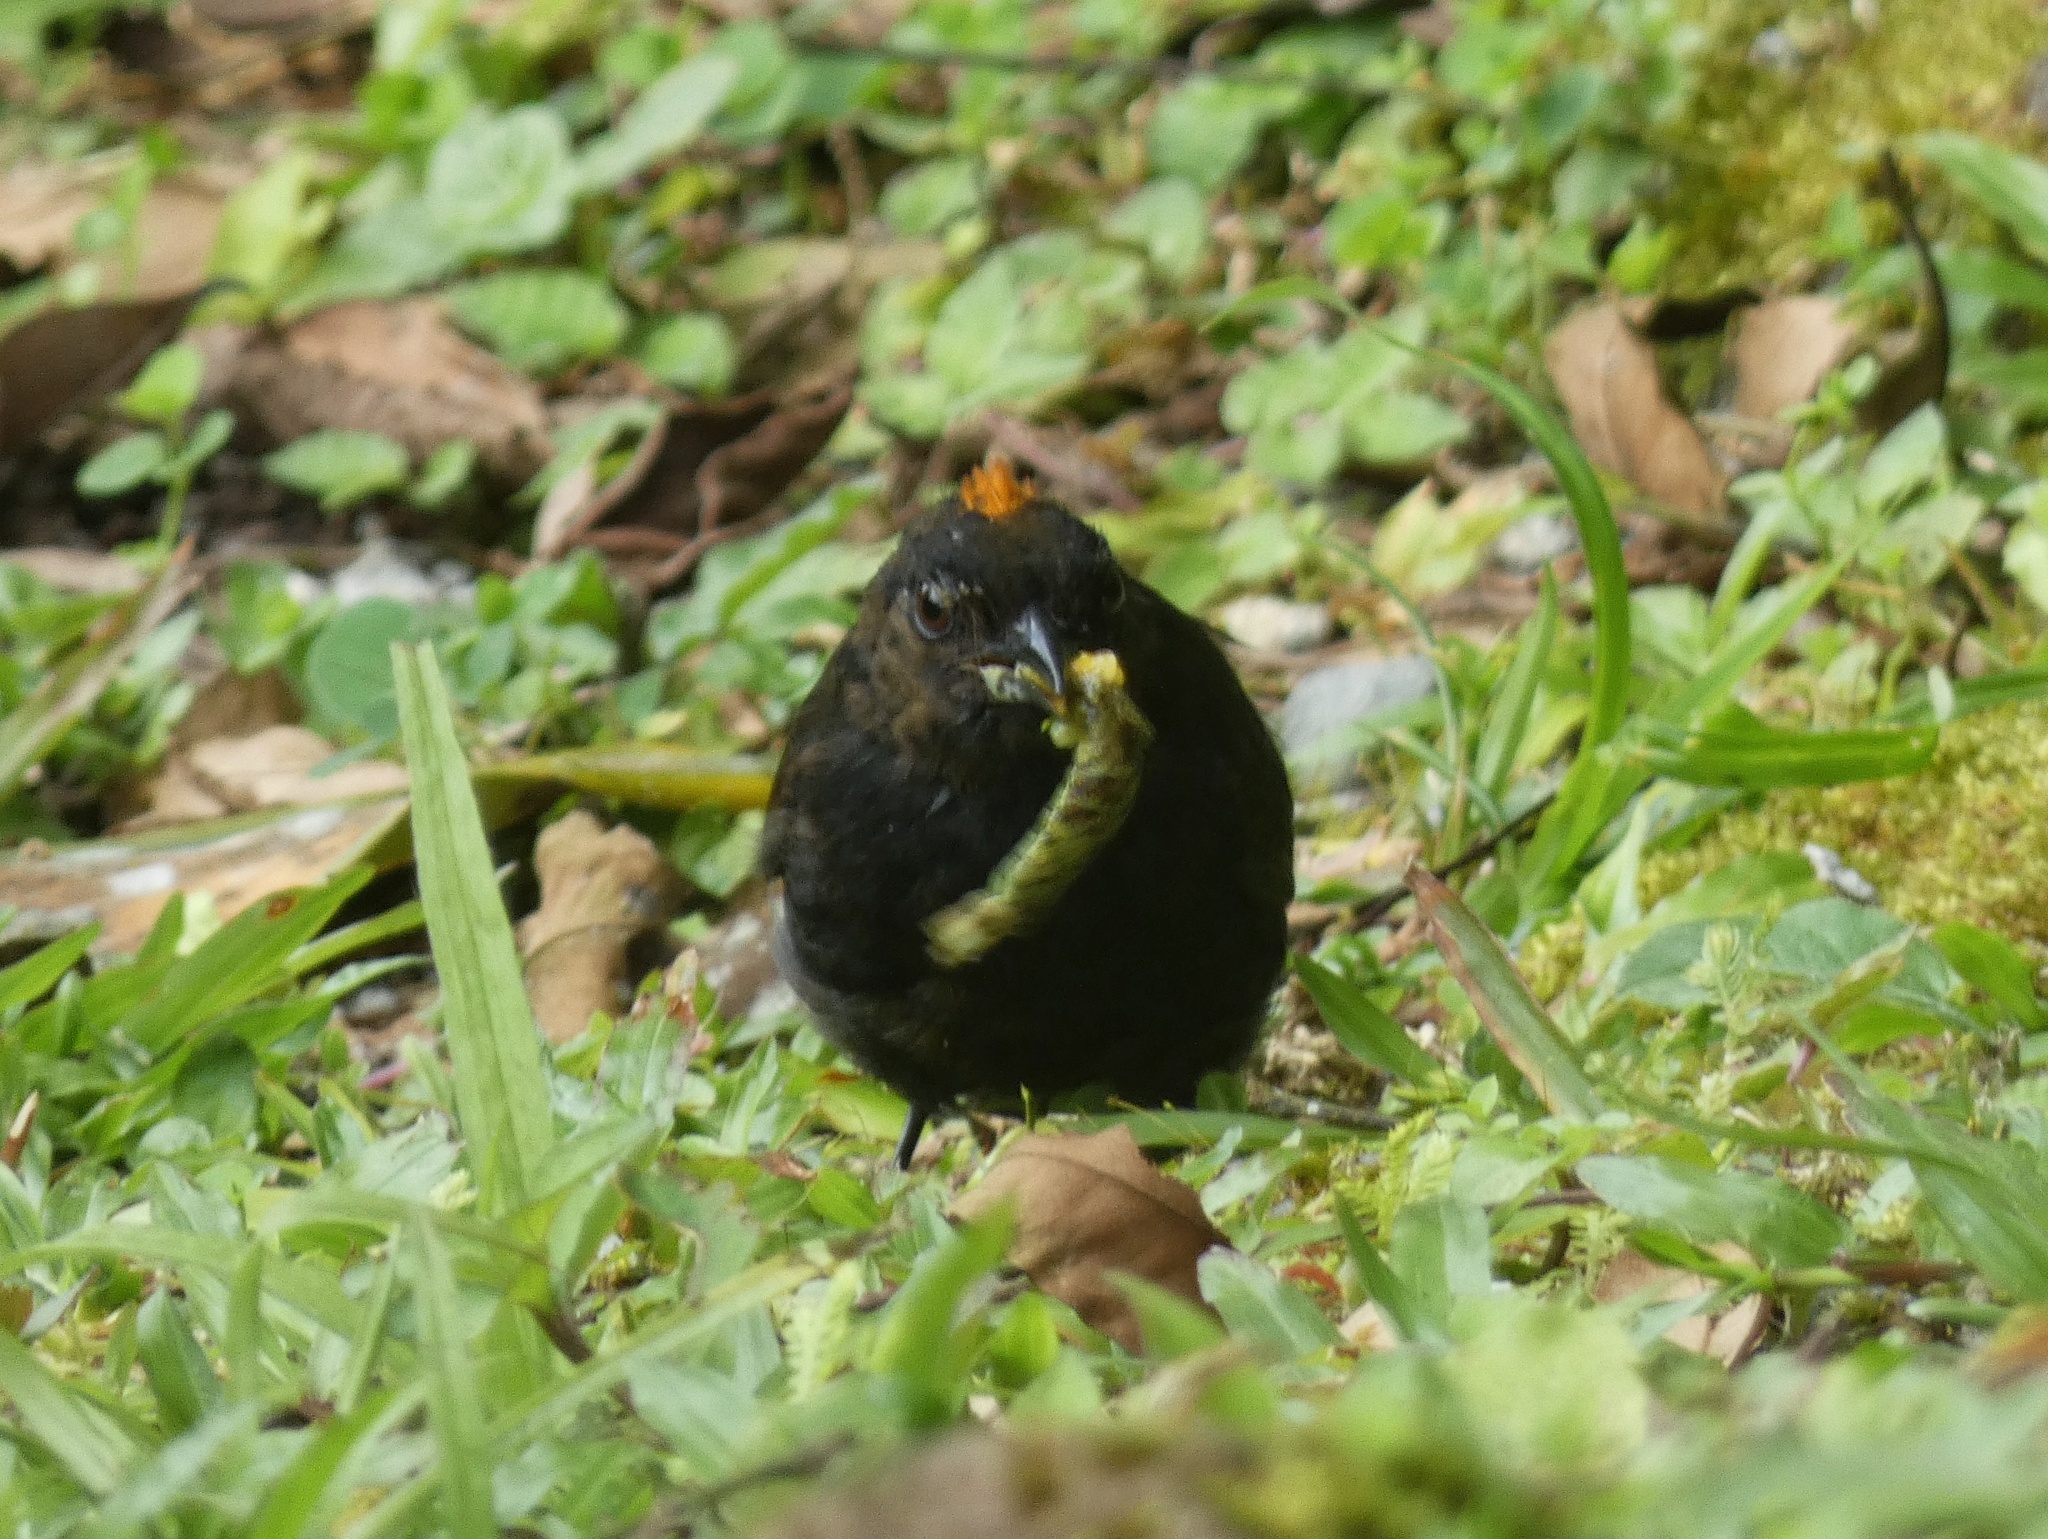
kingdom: Animalia
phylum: Chordata
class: Aves
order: Passeriformes
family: Thraupidae
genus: Tachyphonus
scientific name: Tachyphonus delatrii
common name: Tawny-crested tanager
